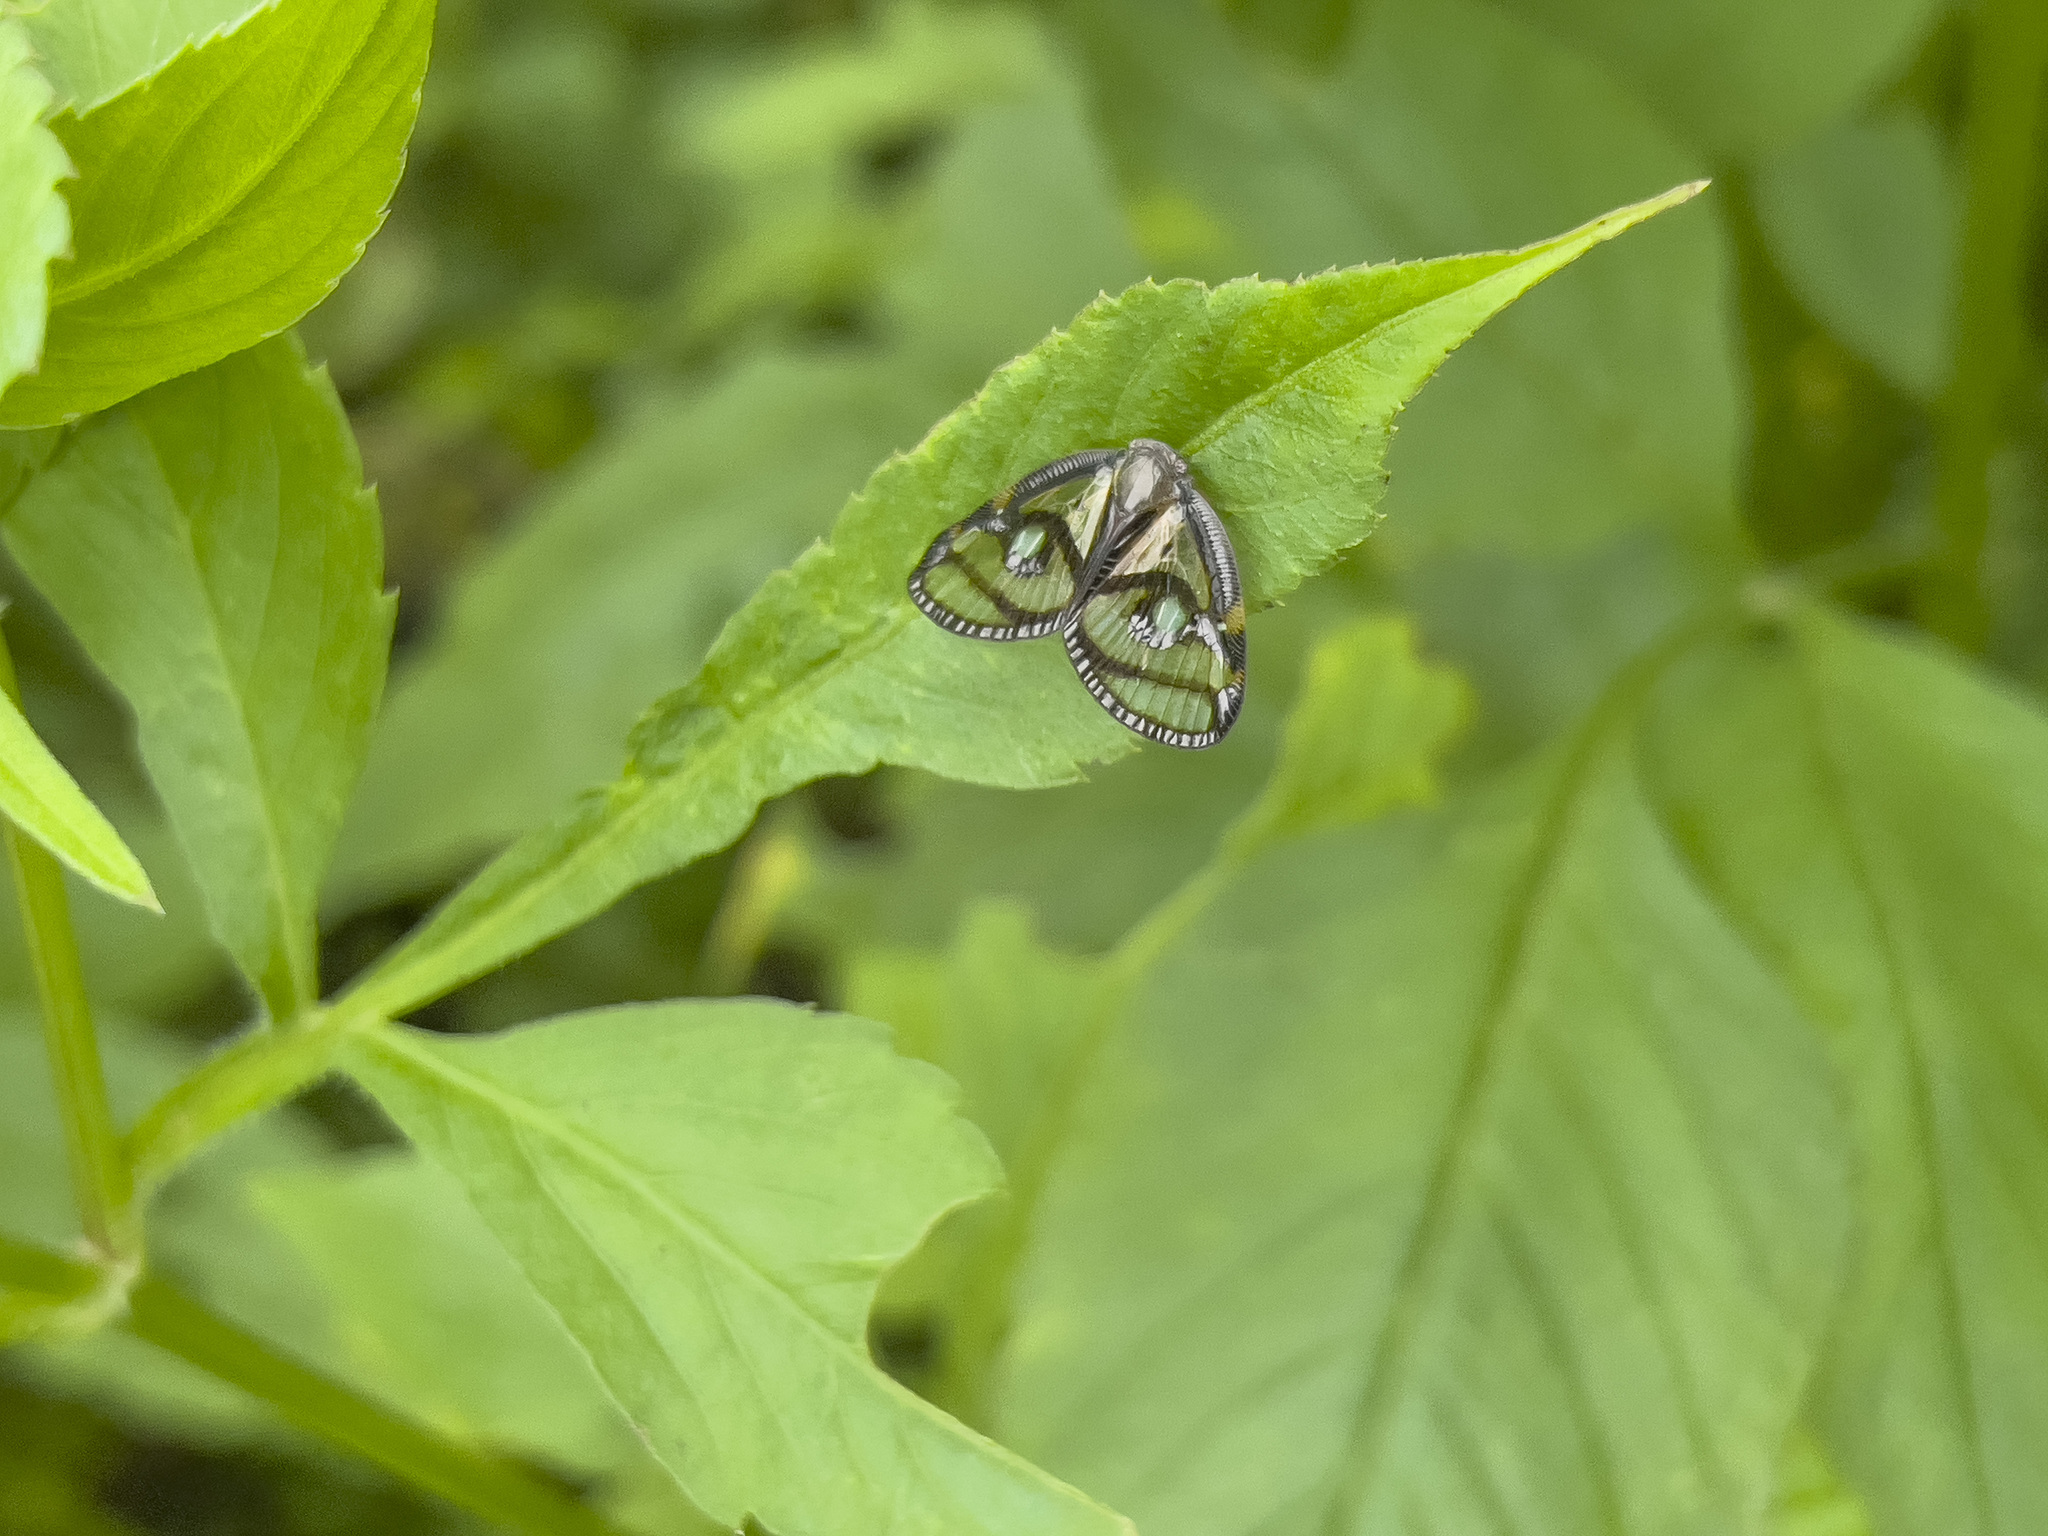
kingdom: Animalia
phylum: Arthropoda
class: Insecta
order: Hemiptera
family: Ricaniidae
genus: Euricania
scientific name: Euricania ocella
